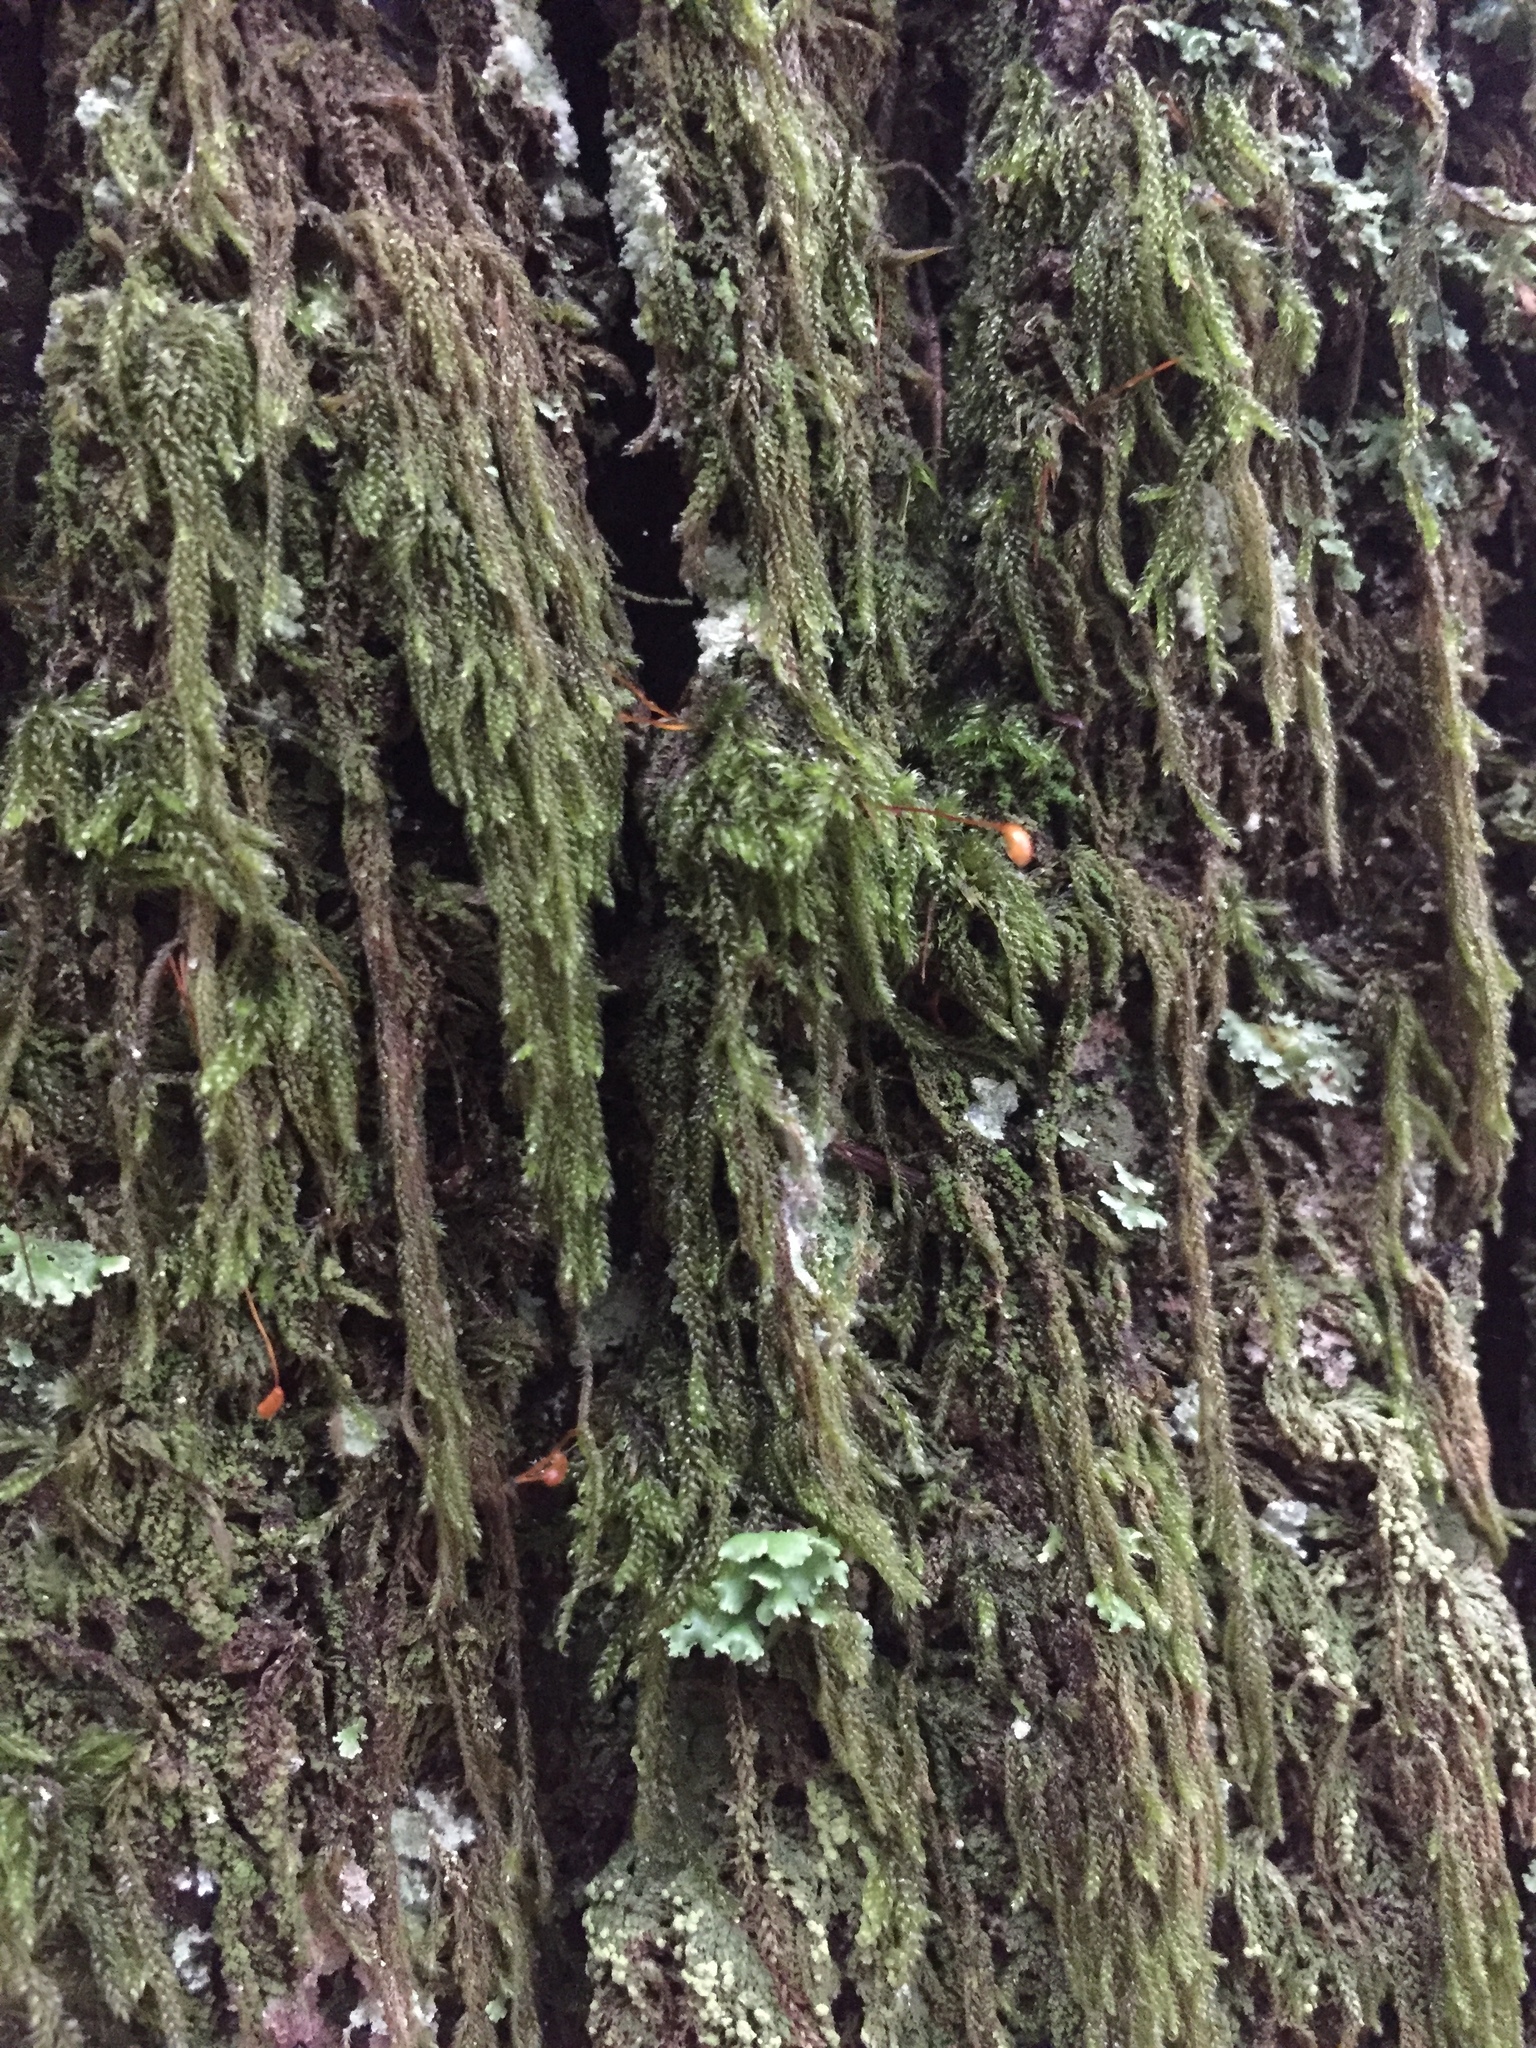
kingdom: Plantae
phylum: Bryophyta
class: Bryopsida
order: Hypnales
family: Pylaisiadelphaceae
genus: Trochophyllohypnum
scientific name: Trochophyllohypnum circinale
